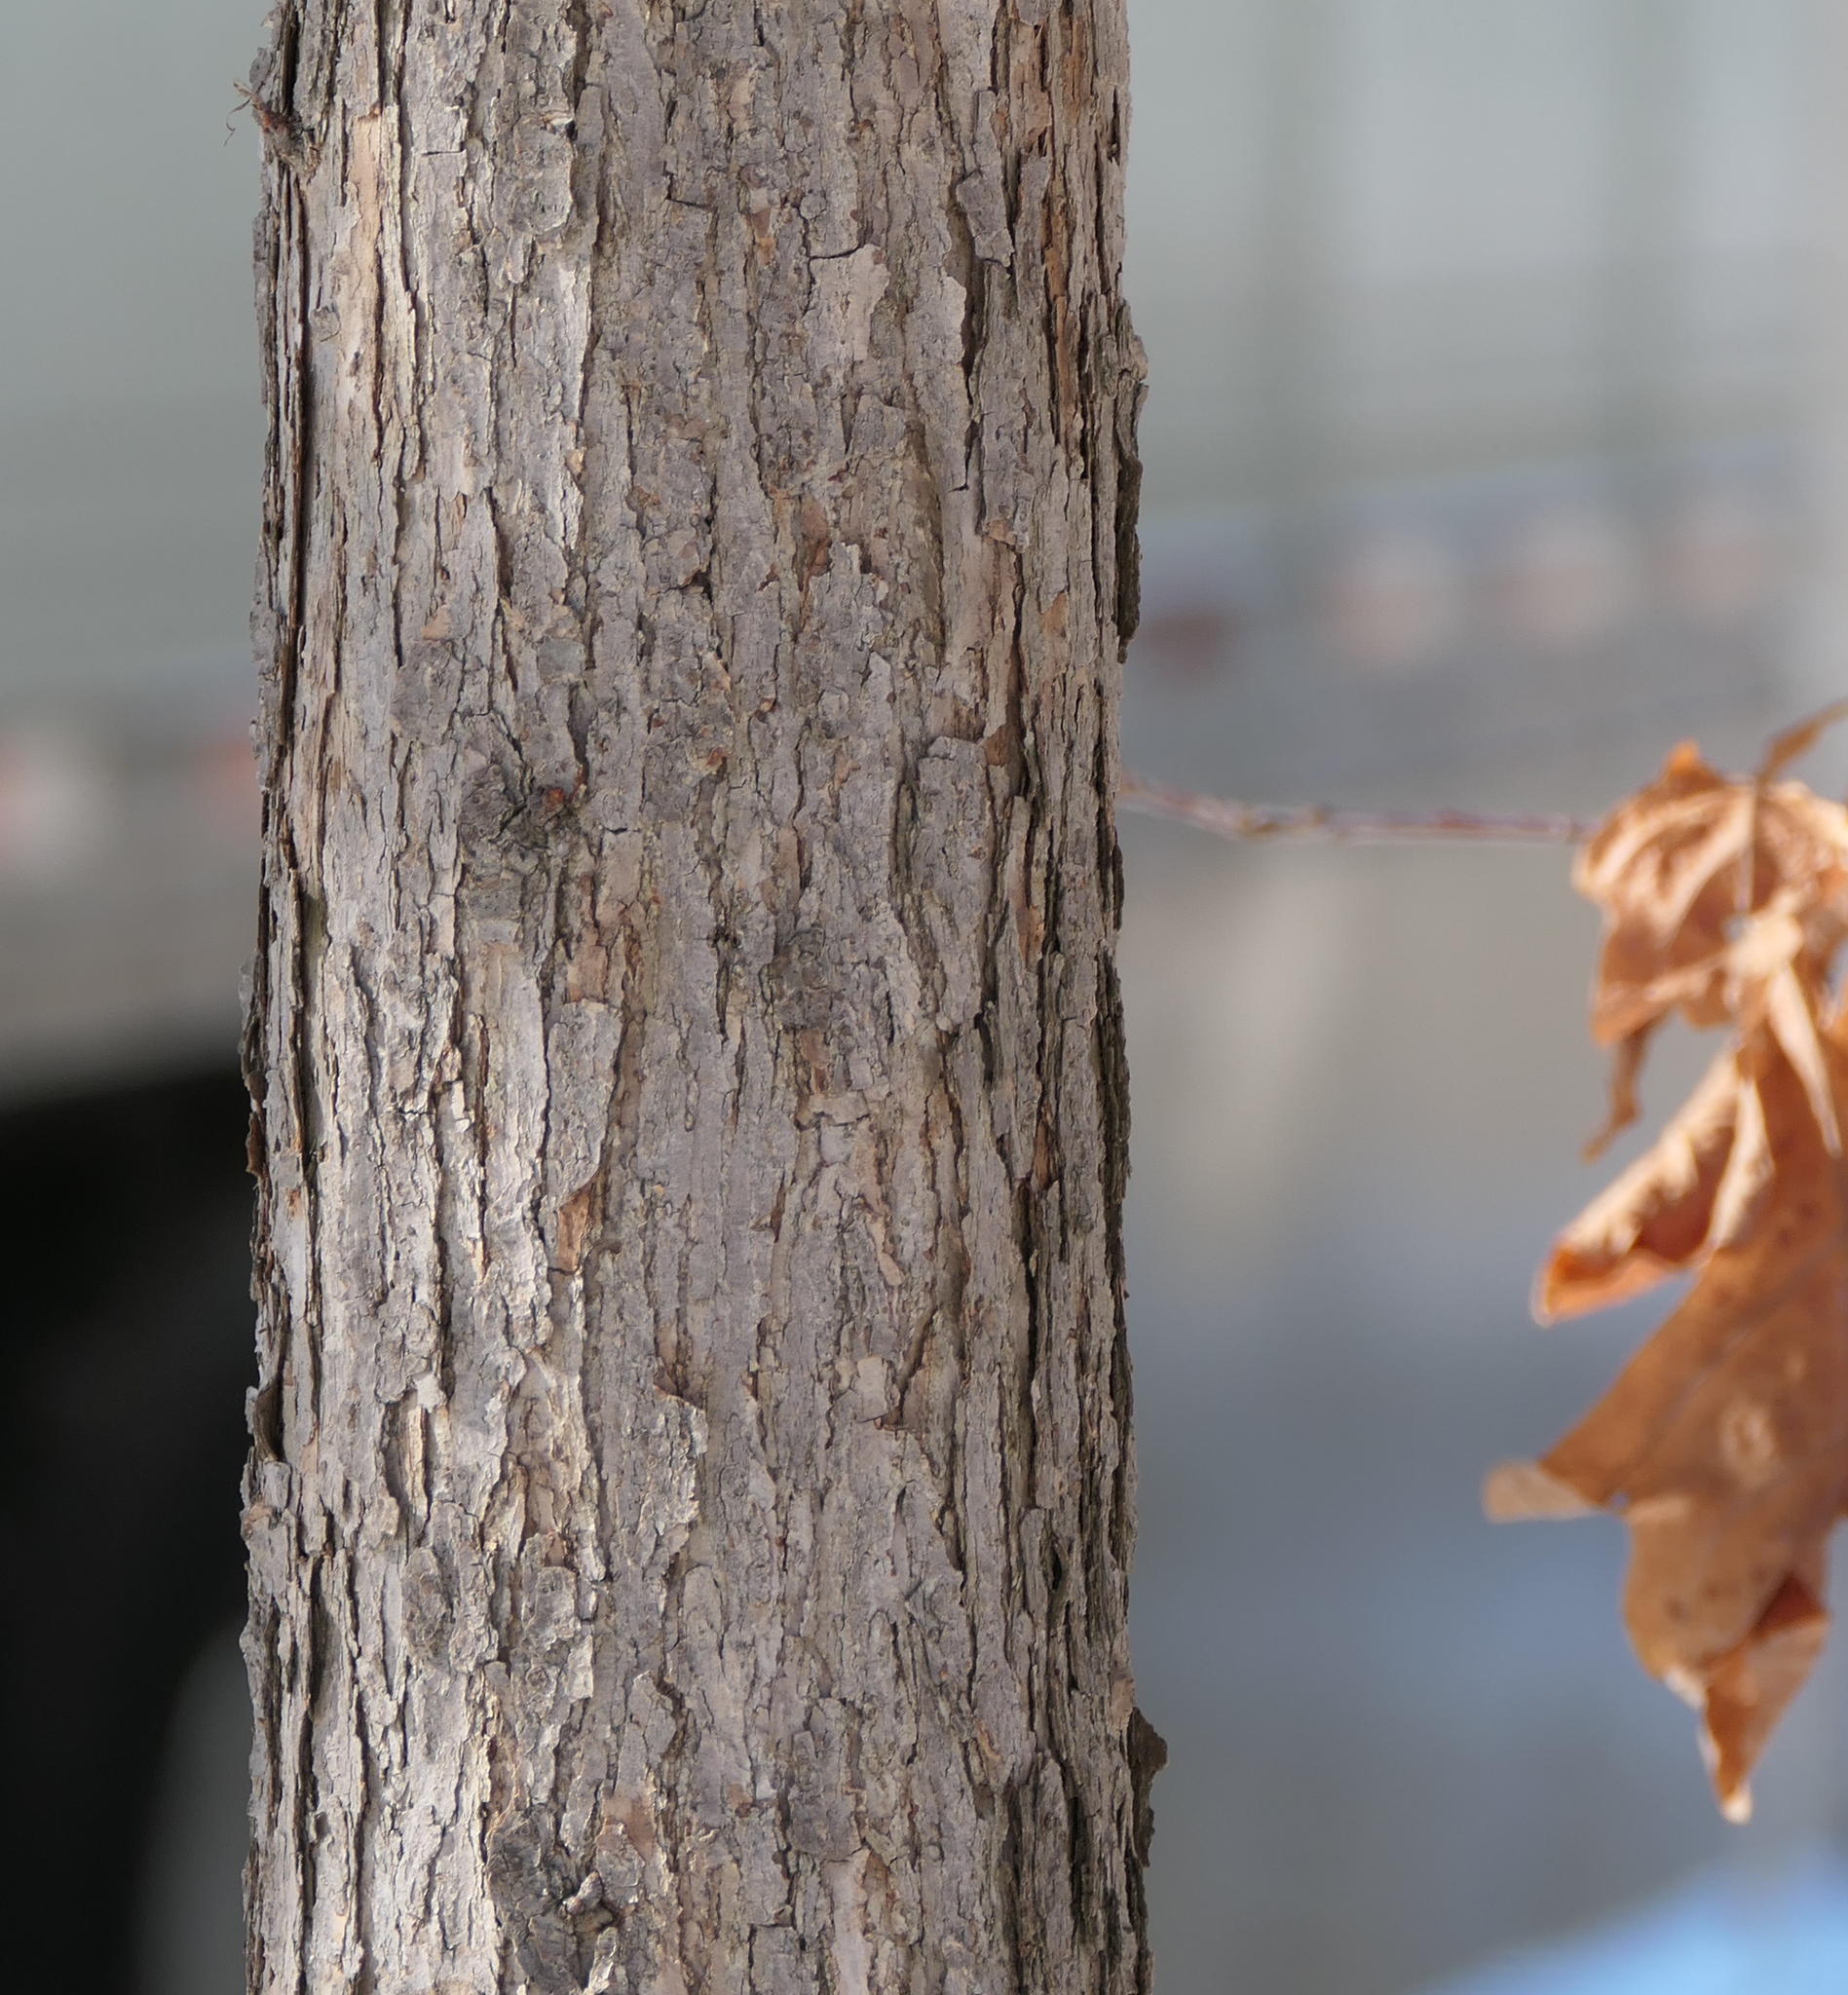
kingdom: Plantae
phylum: Tracheophyta
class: Magnoliopsida
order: Fagales
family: Fagaceae
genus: Quercus
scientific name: Quercus alba
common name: White oak
